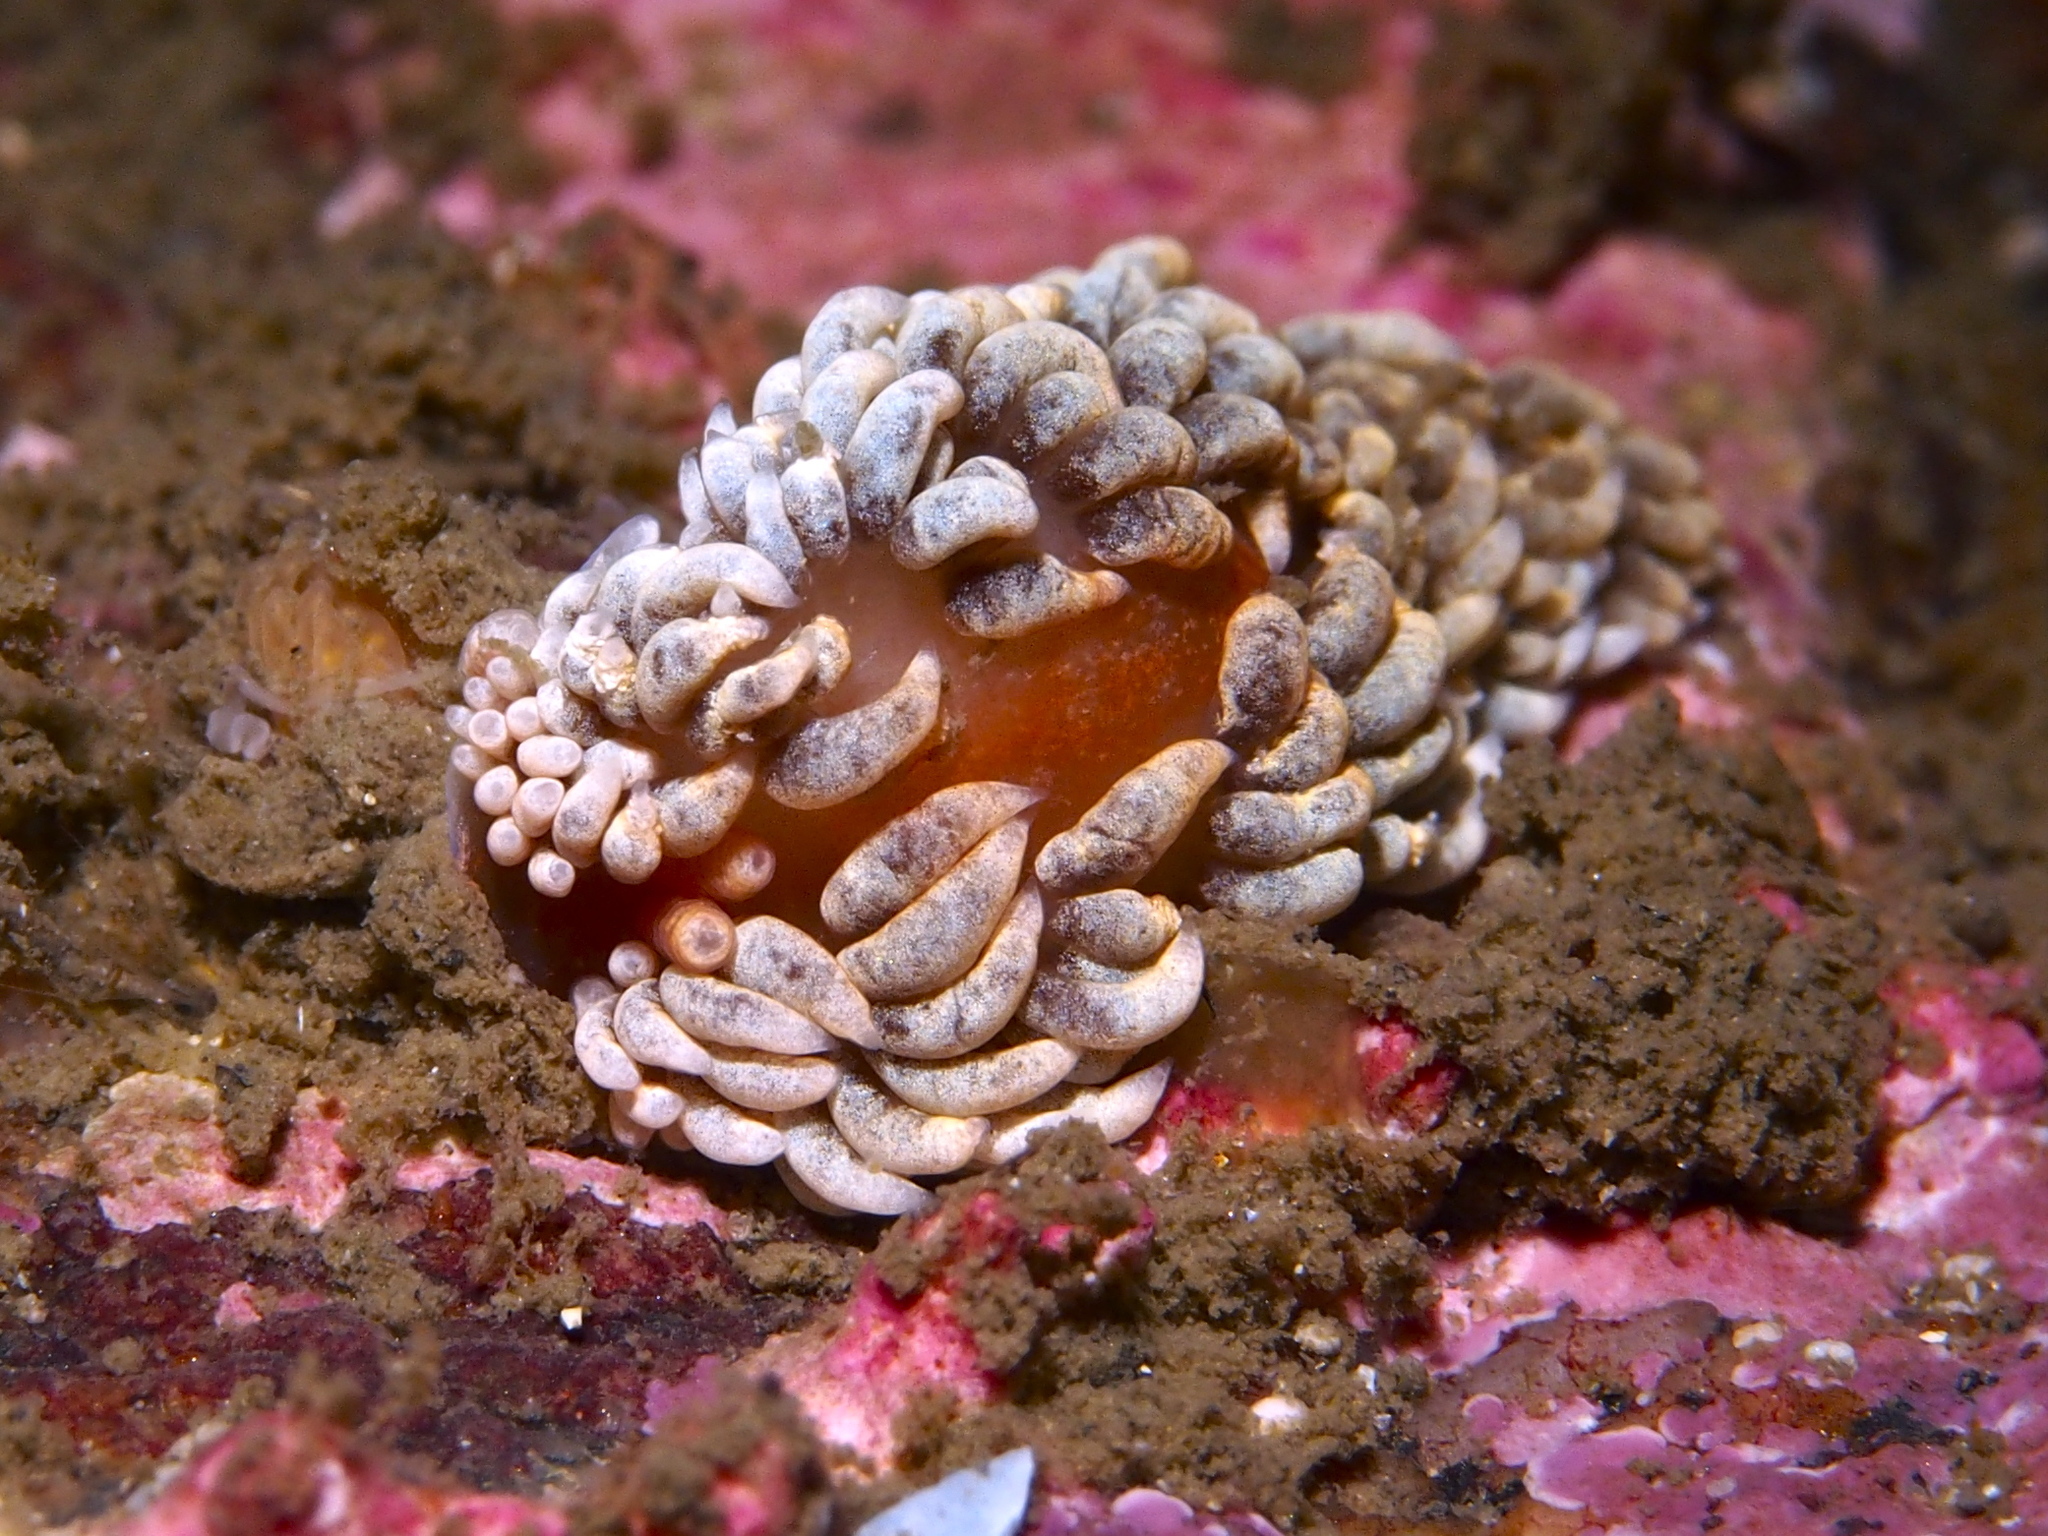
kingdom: Animalia
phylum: Mollusca
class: Gastropoda
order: Nudibranchia
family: Aeolidiidae
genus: Aeolidiella
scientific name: Aeolidiella glauca
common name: Orange-brown aeolid
